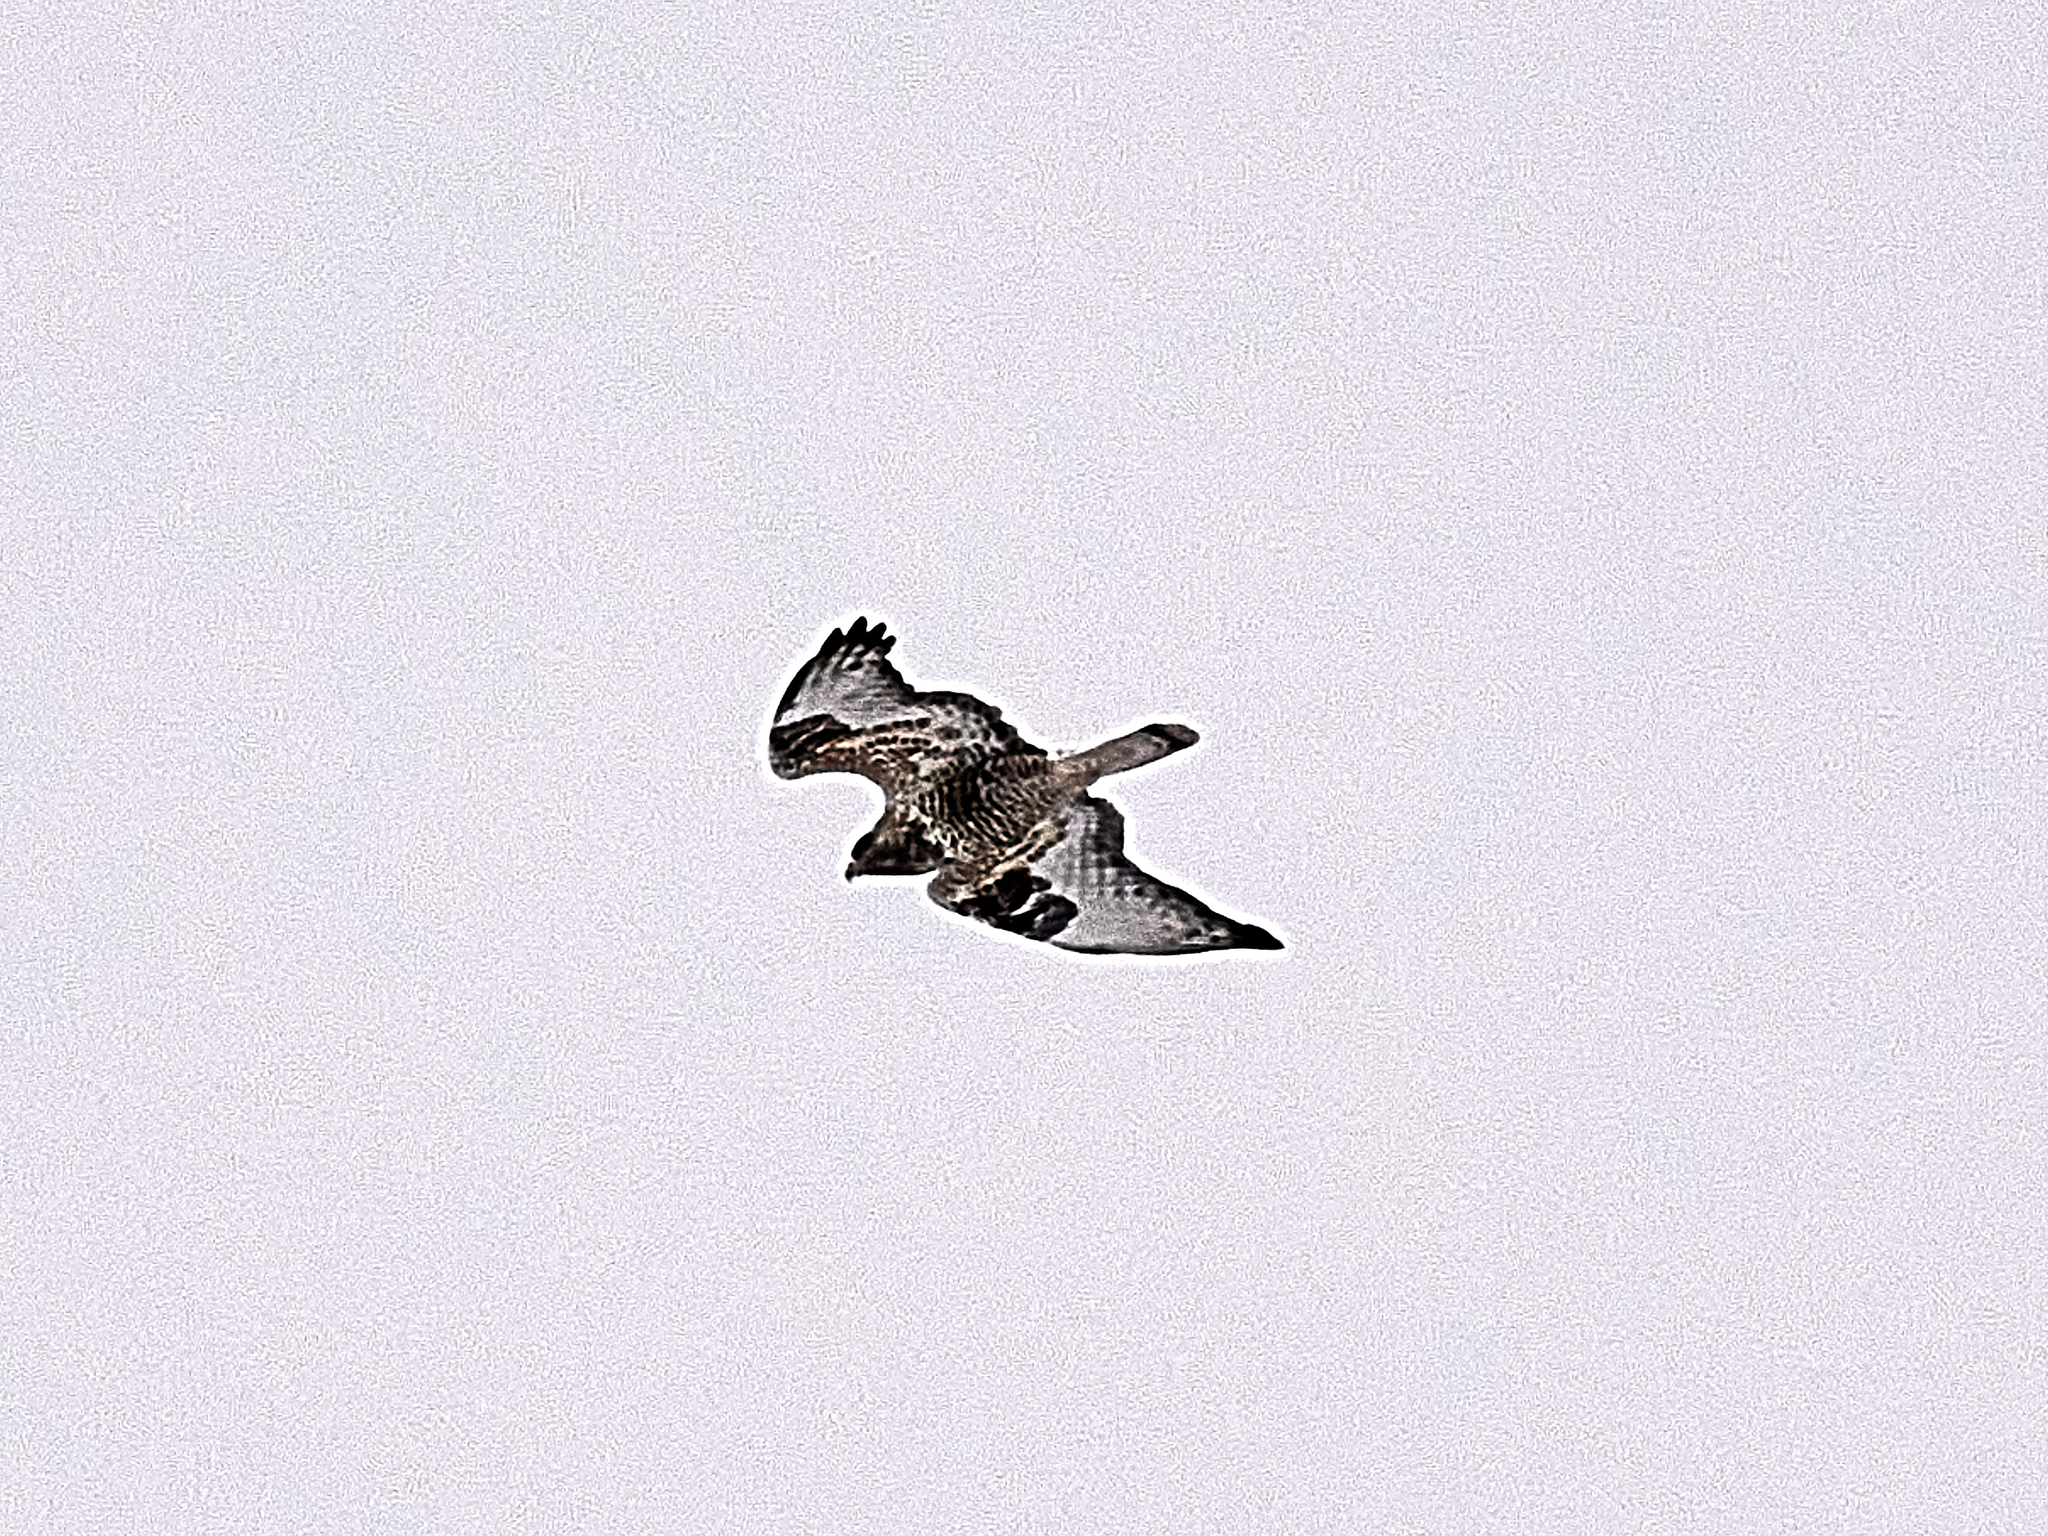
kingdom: Animalia
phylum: Chordata
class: Aves
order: Accipitriformes
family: Accipitridae
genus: Buteo
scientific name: Buteo lagopus
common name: Rough-legged buzzard
